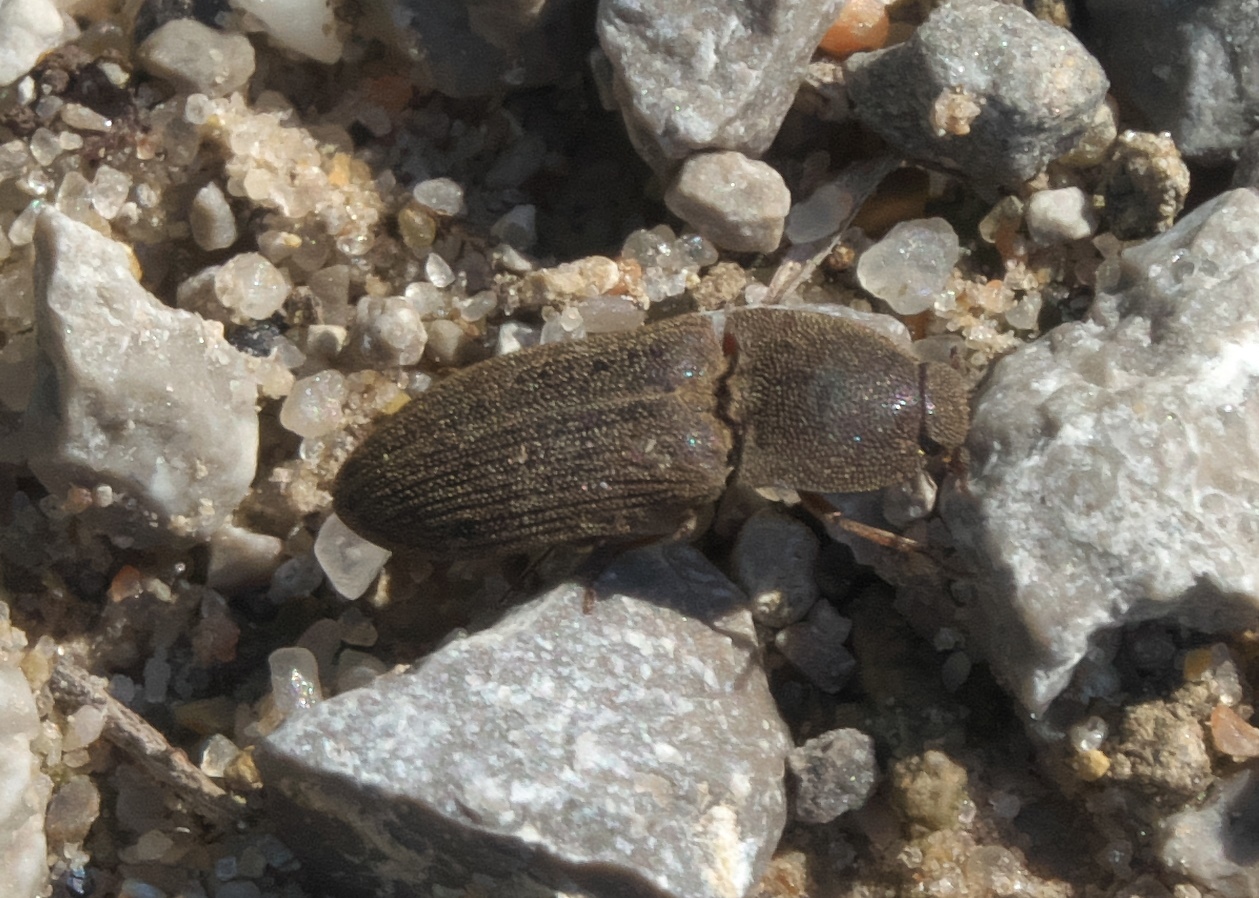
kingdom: Animalia
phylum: Arthropoda
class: Insecta
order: Coleoptera
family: Elateridae
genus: Agrypnus
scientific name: Agrypnus rectangularis
